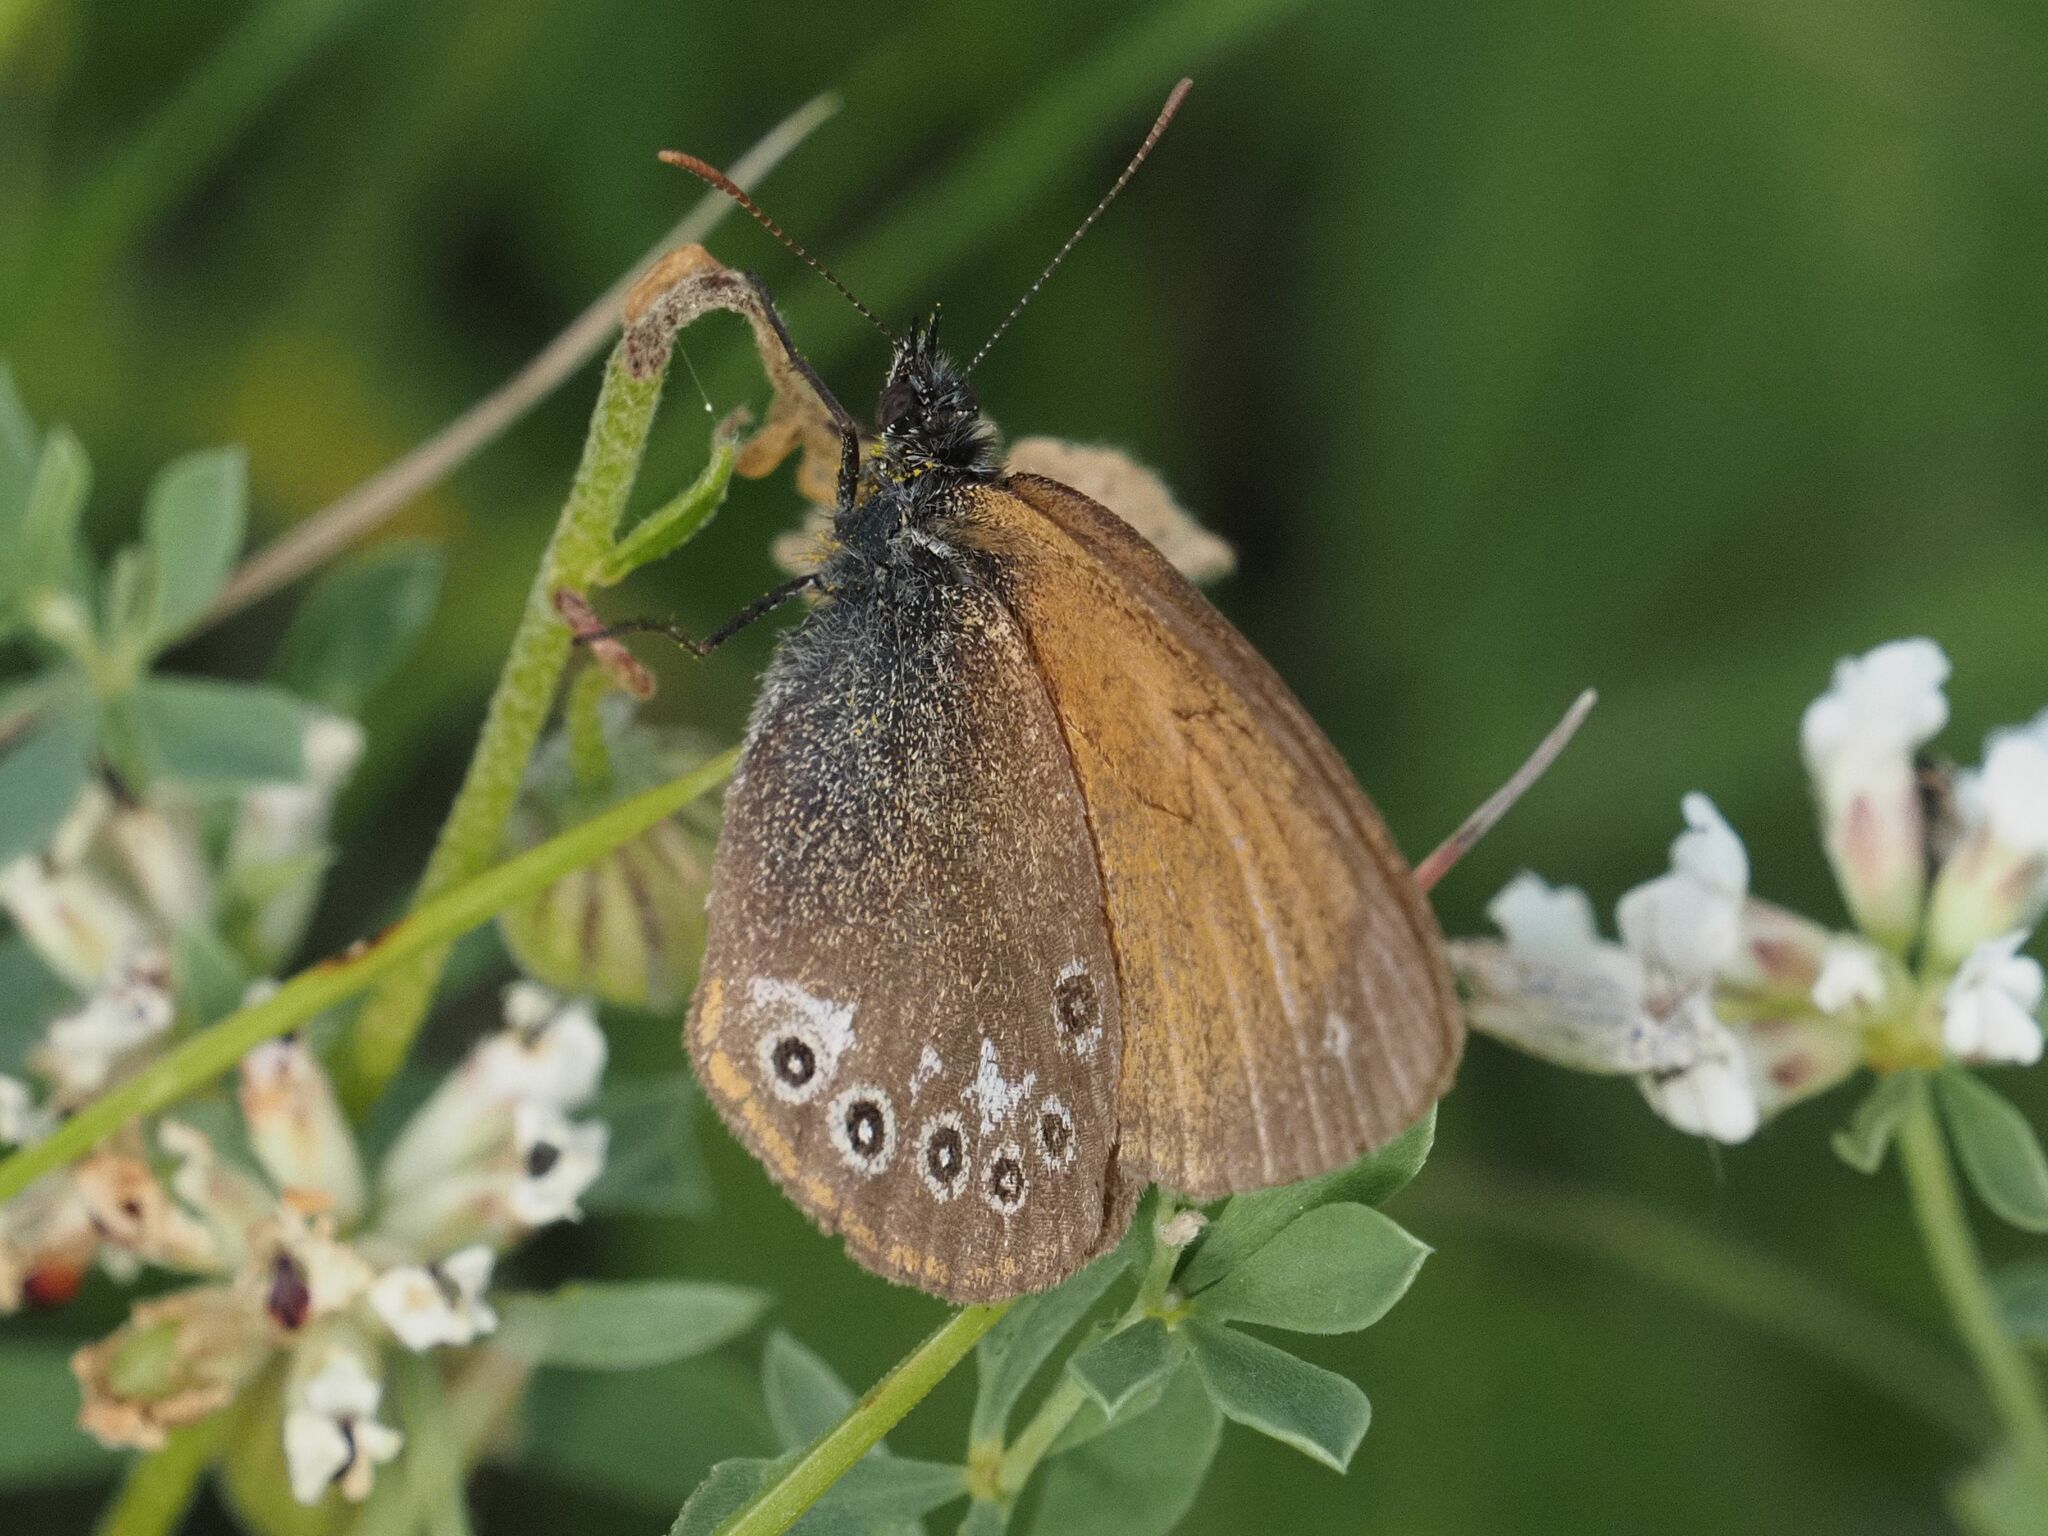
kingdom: Animalia
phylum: Arthropoda
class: Insecta
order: Lepidoptera
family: Nymphalidae
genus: Coenonympha
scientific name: Coenonympha iphis
